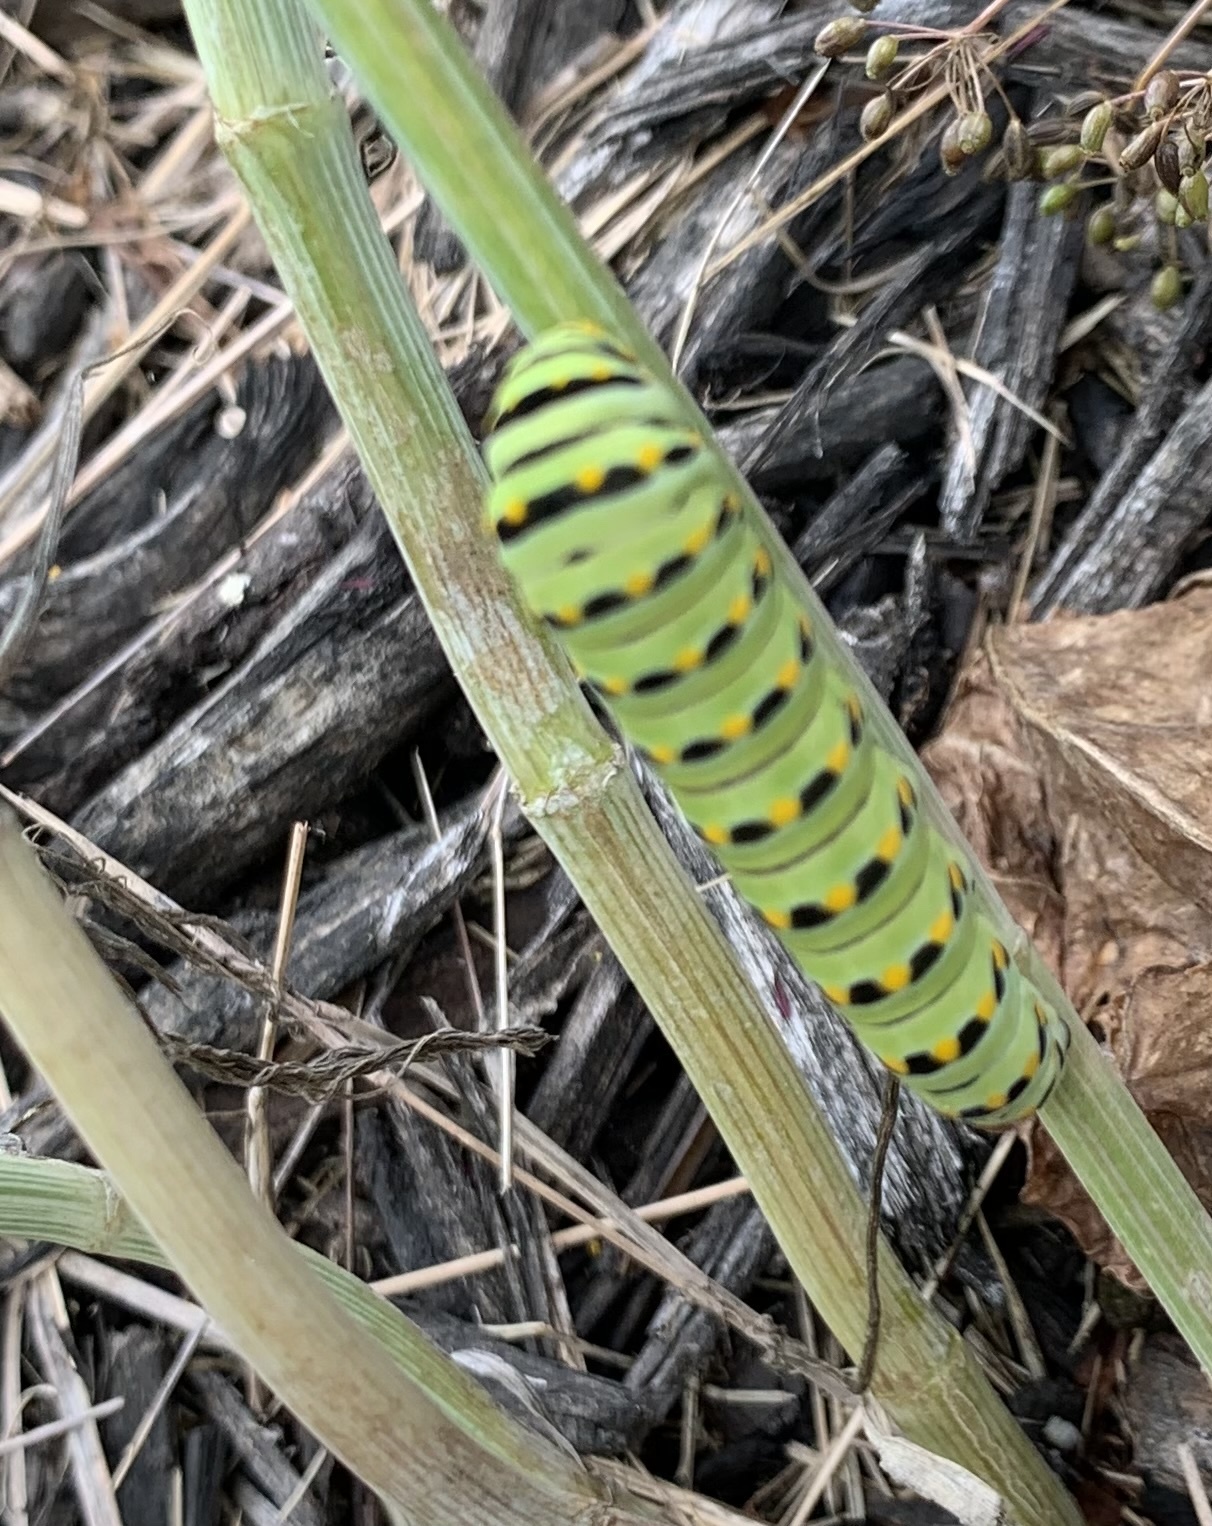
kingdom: Animalia
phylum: Arthropoda
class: Insecta
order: Lepidoptera
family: Papilionidae
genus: Papilio
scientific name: Papilio polyxenes
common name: Black swallowtail
